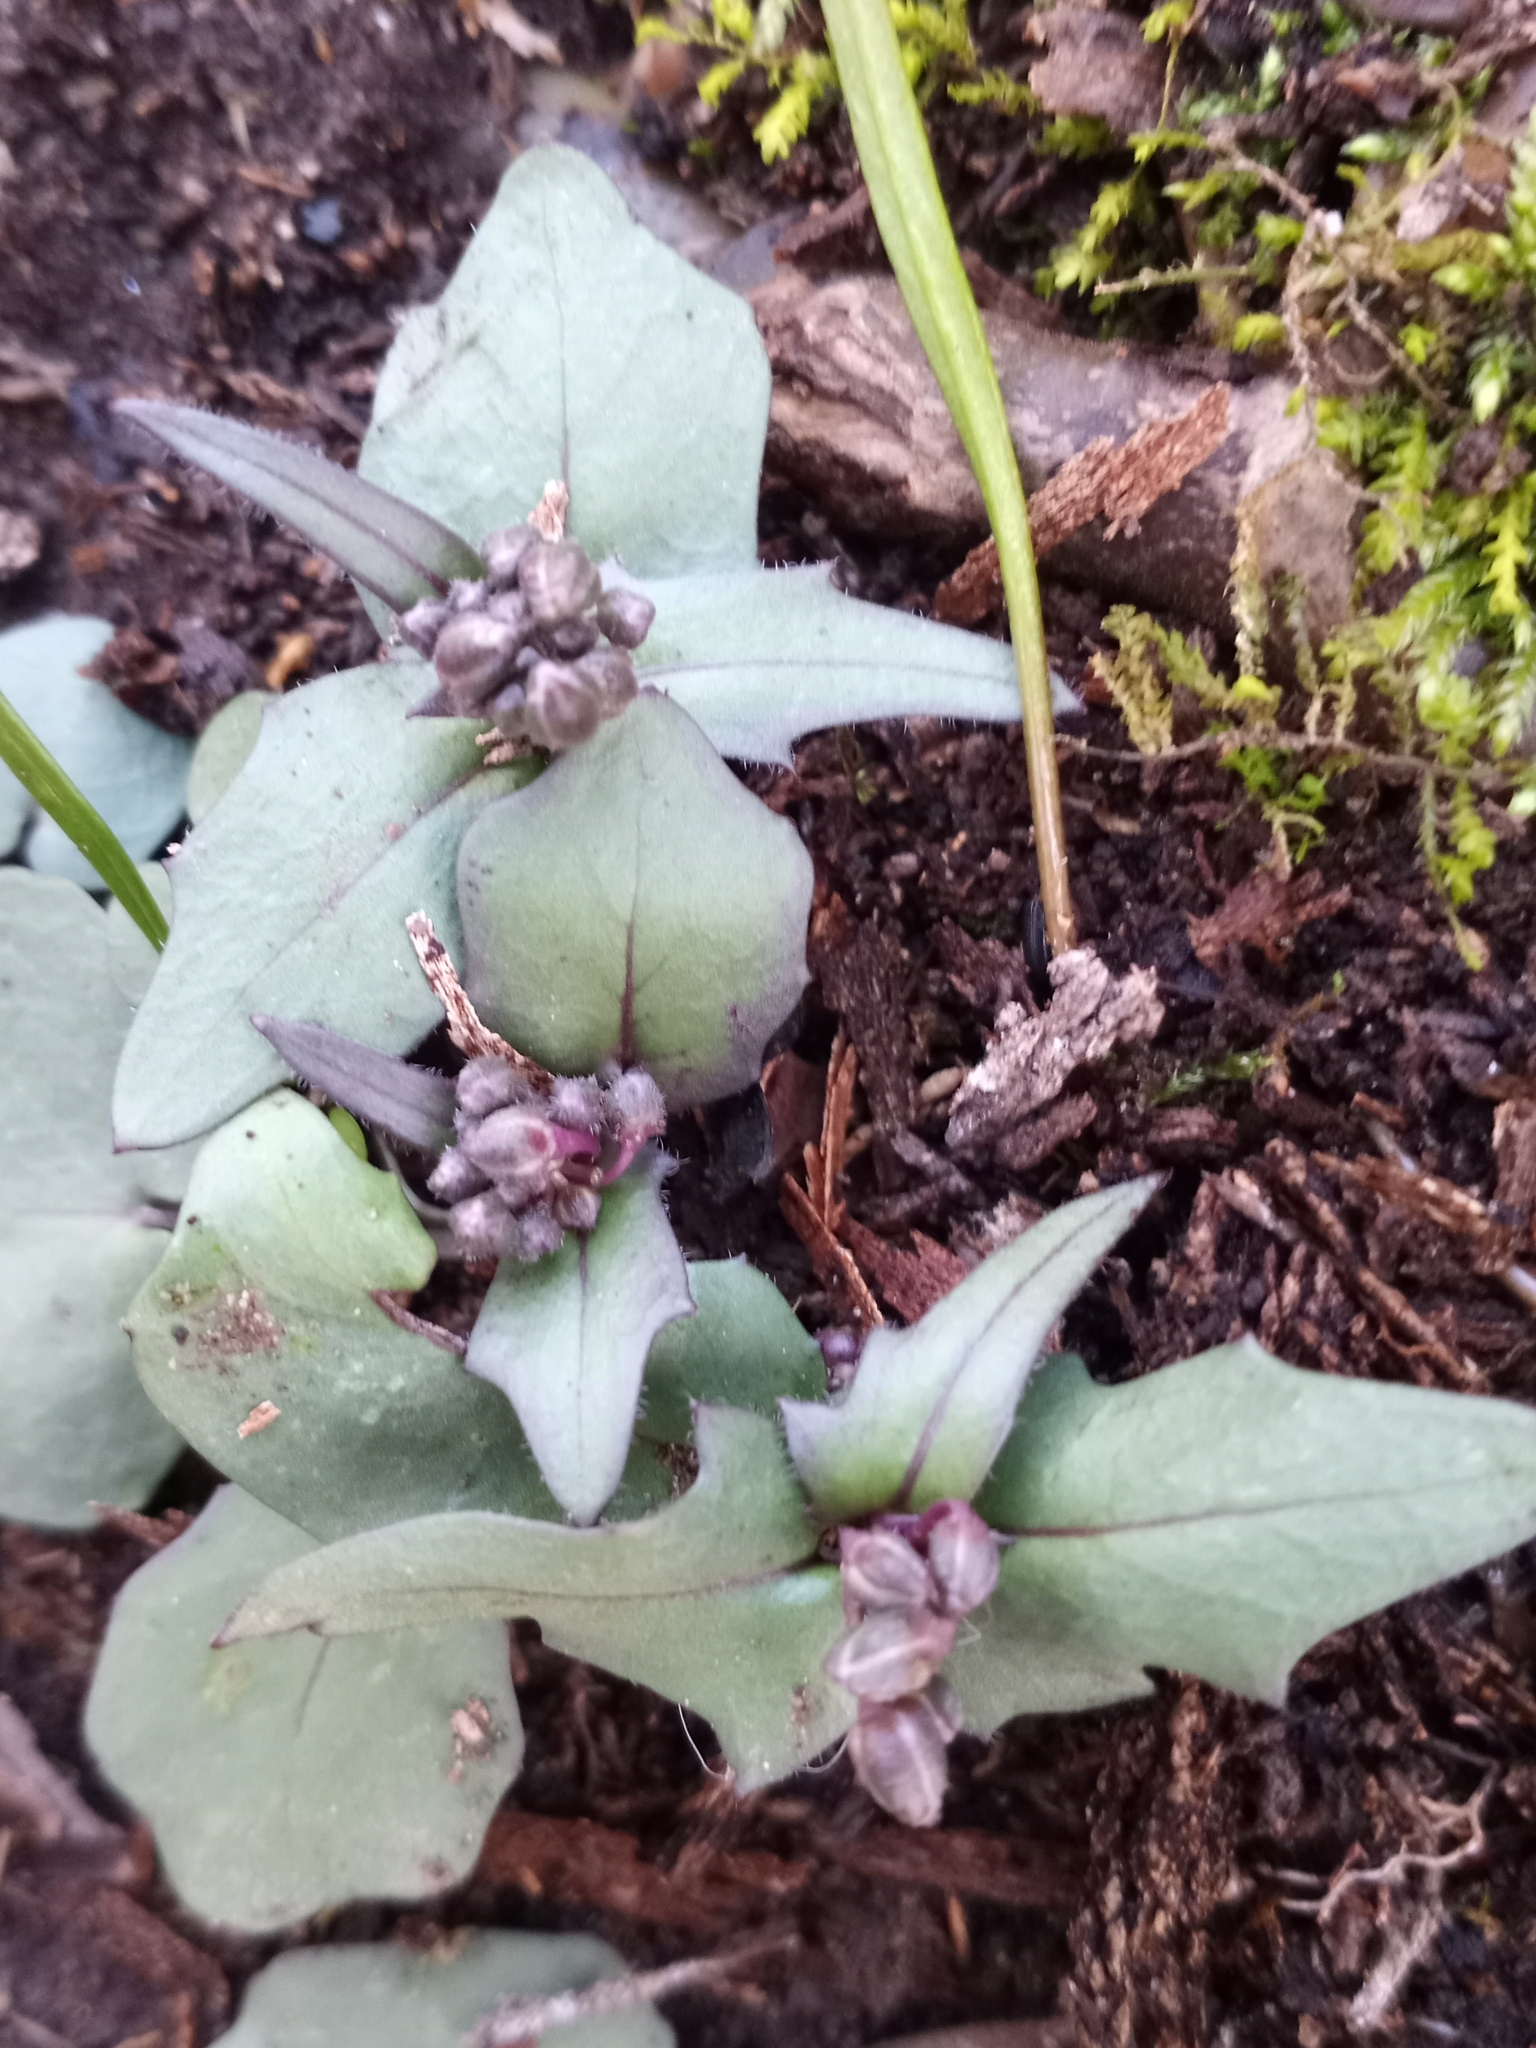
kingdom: Plantae
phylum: Tracheophyta
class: Magnoliopsida
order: Brassicales
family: Brassicaceae
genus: Cardamine
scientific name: Cardamine douglassii
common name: Purple cress
